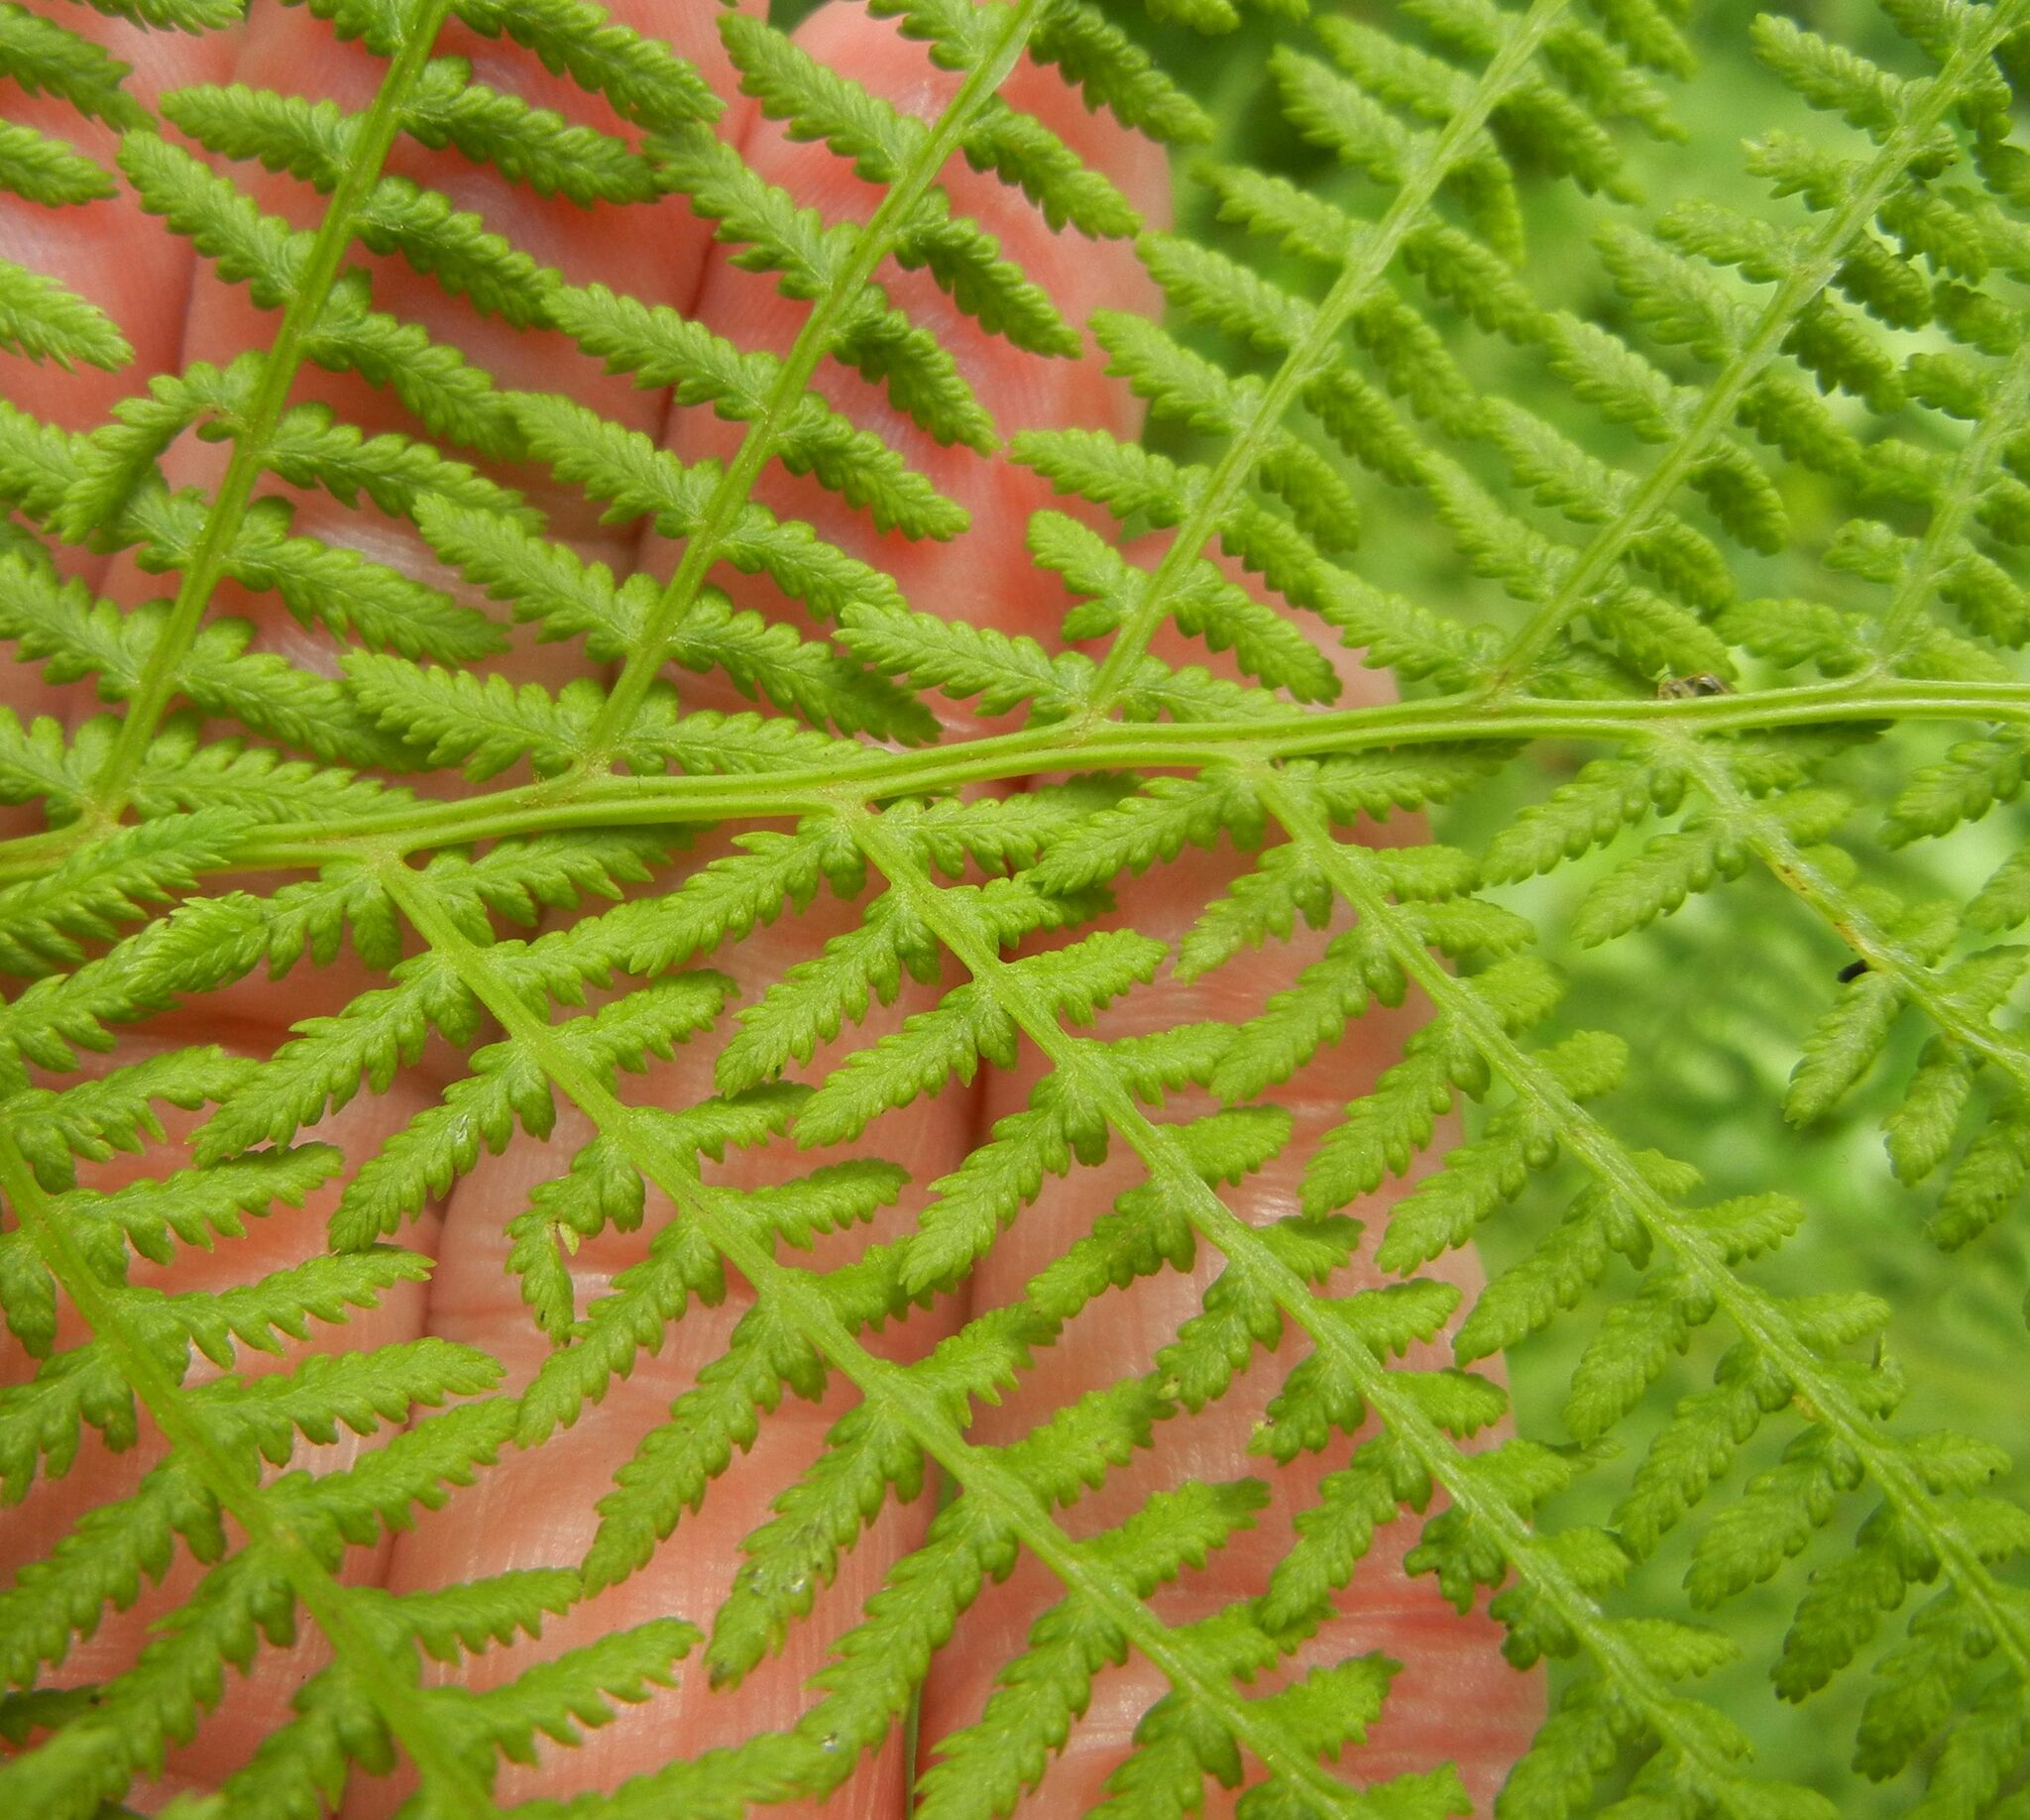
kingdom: Plantae
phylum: Tracheophyta
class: Polypodiopsida
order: Polypodiales
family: Athyriaceae
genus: Athyrium
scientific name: Athyrium filix-femina
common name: Lady fern
